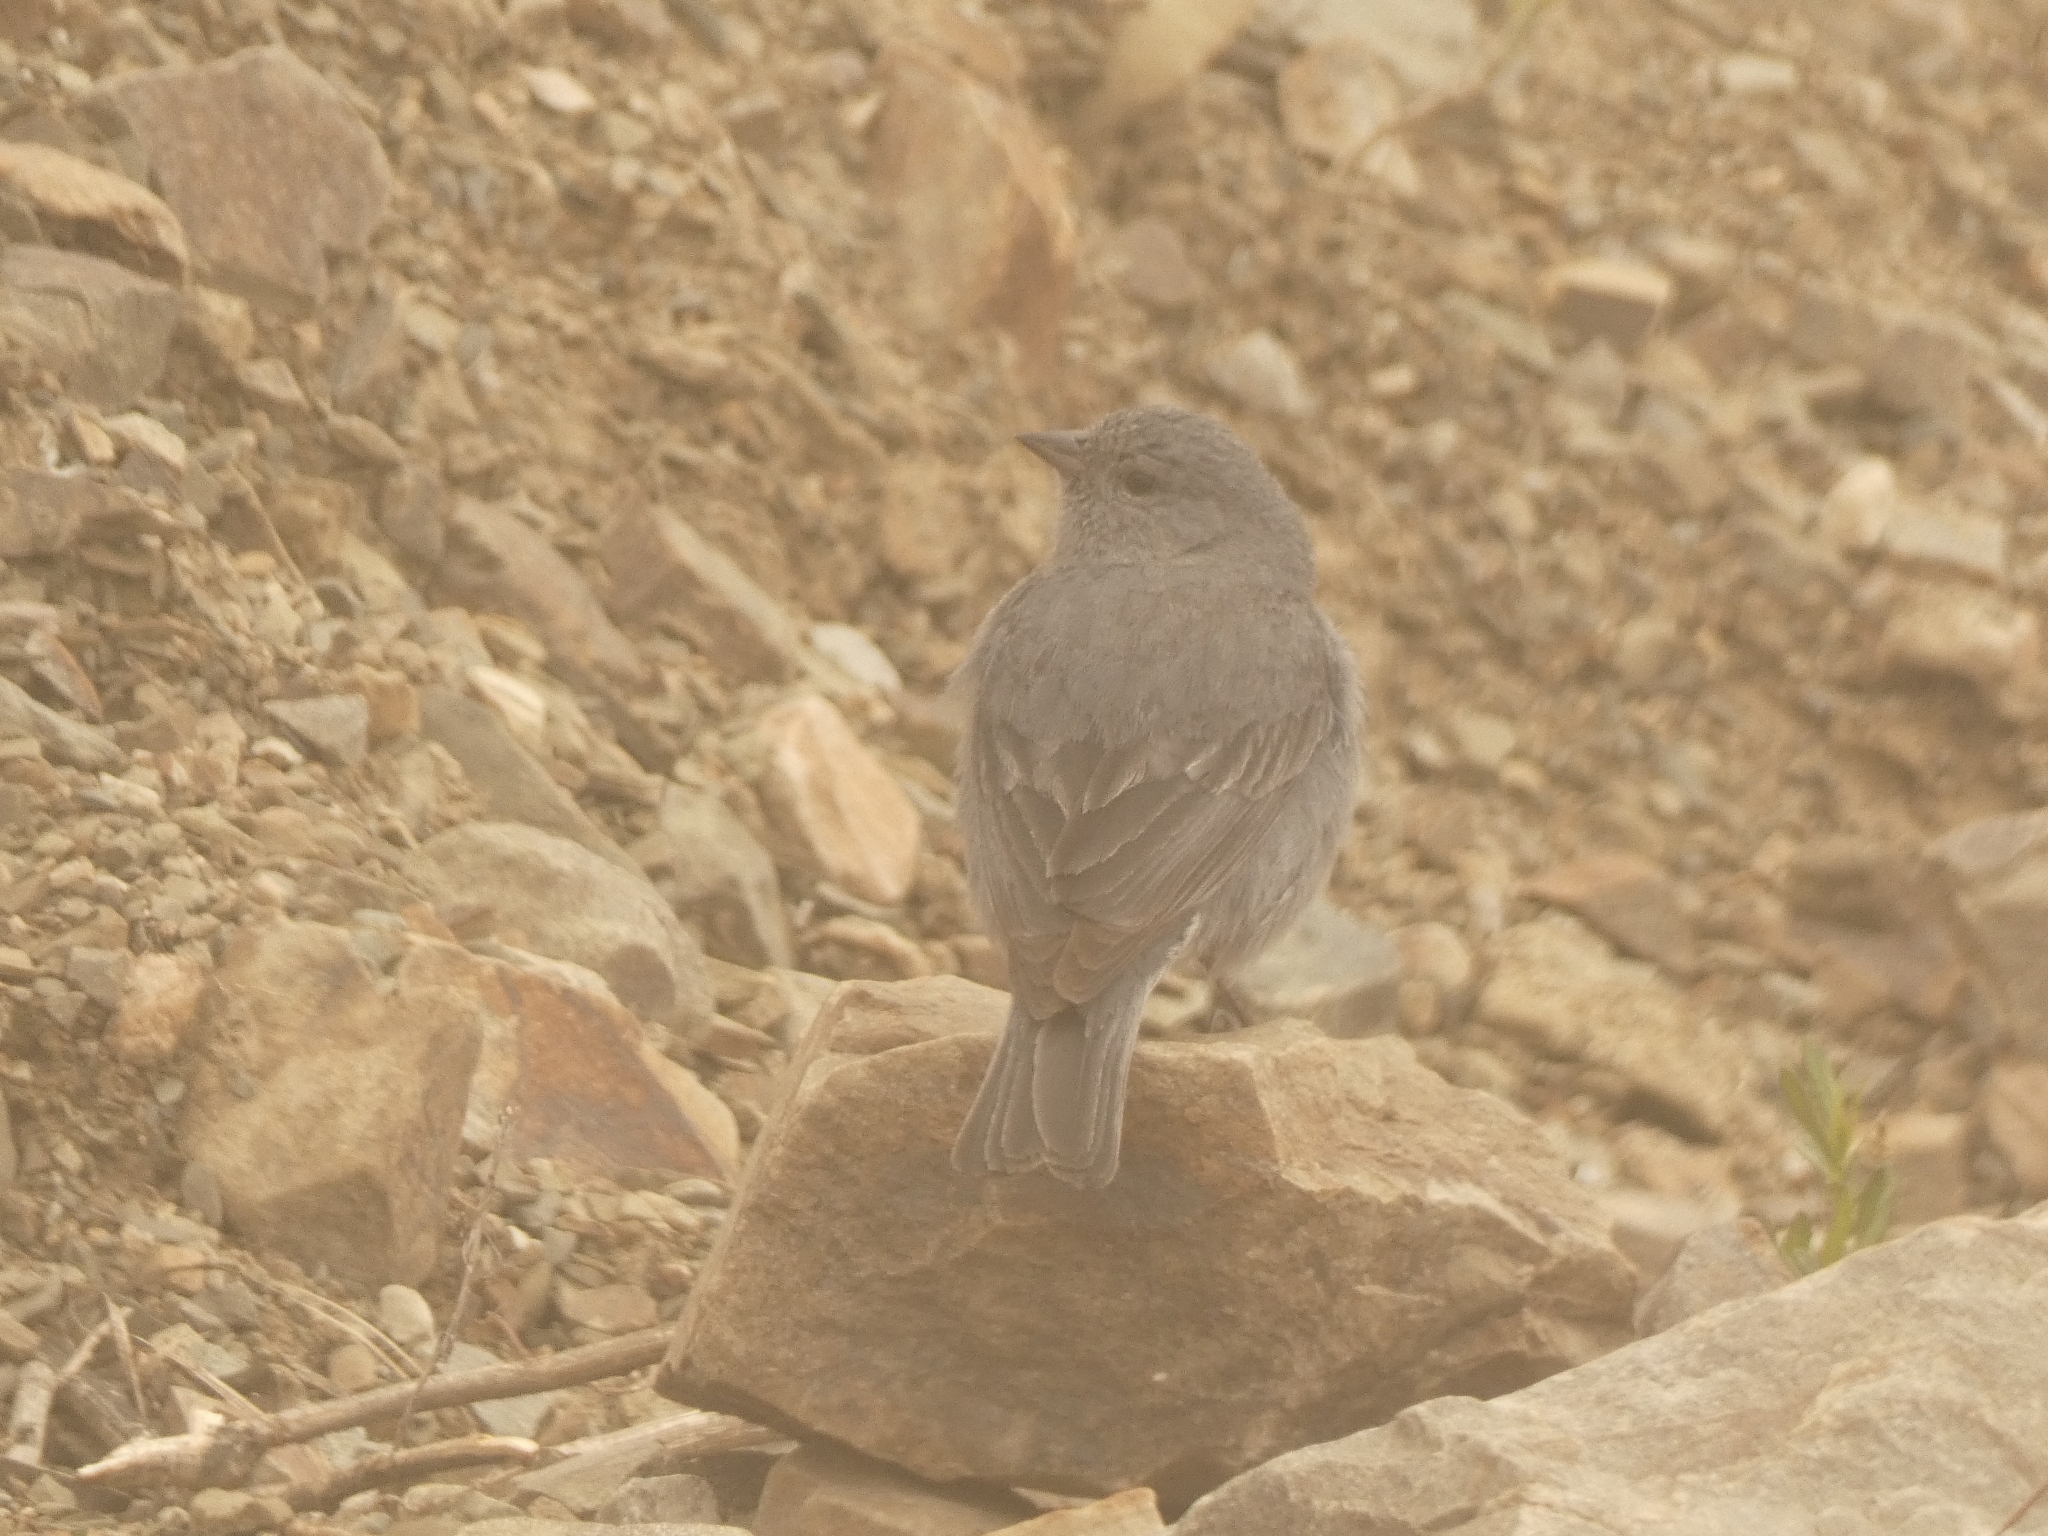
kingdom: Animalia
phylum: Chordata
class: Aves
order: Passeriformes
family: Thraupidae
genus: Geospizopsis
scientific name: Geospizopsis unicolor
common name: Plumbeous sierra-finch
